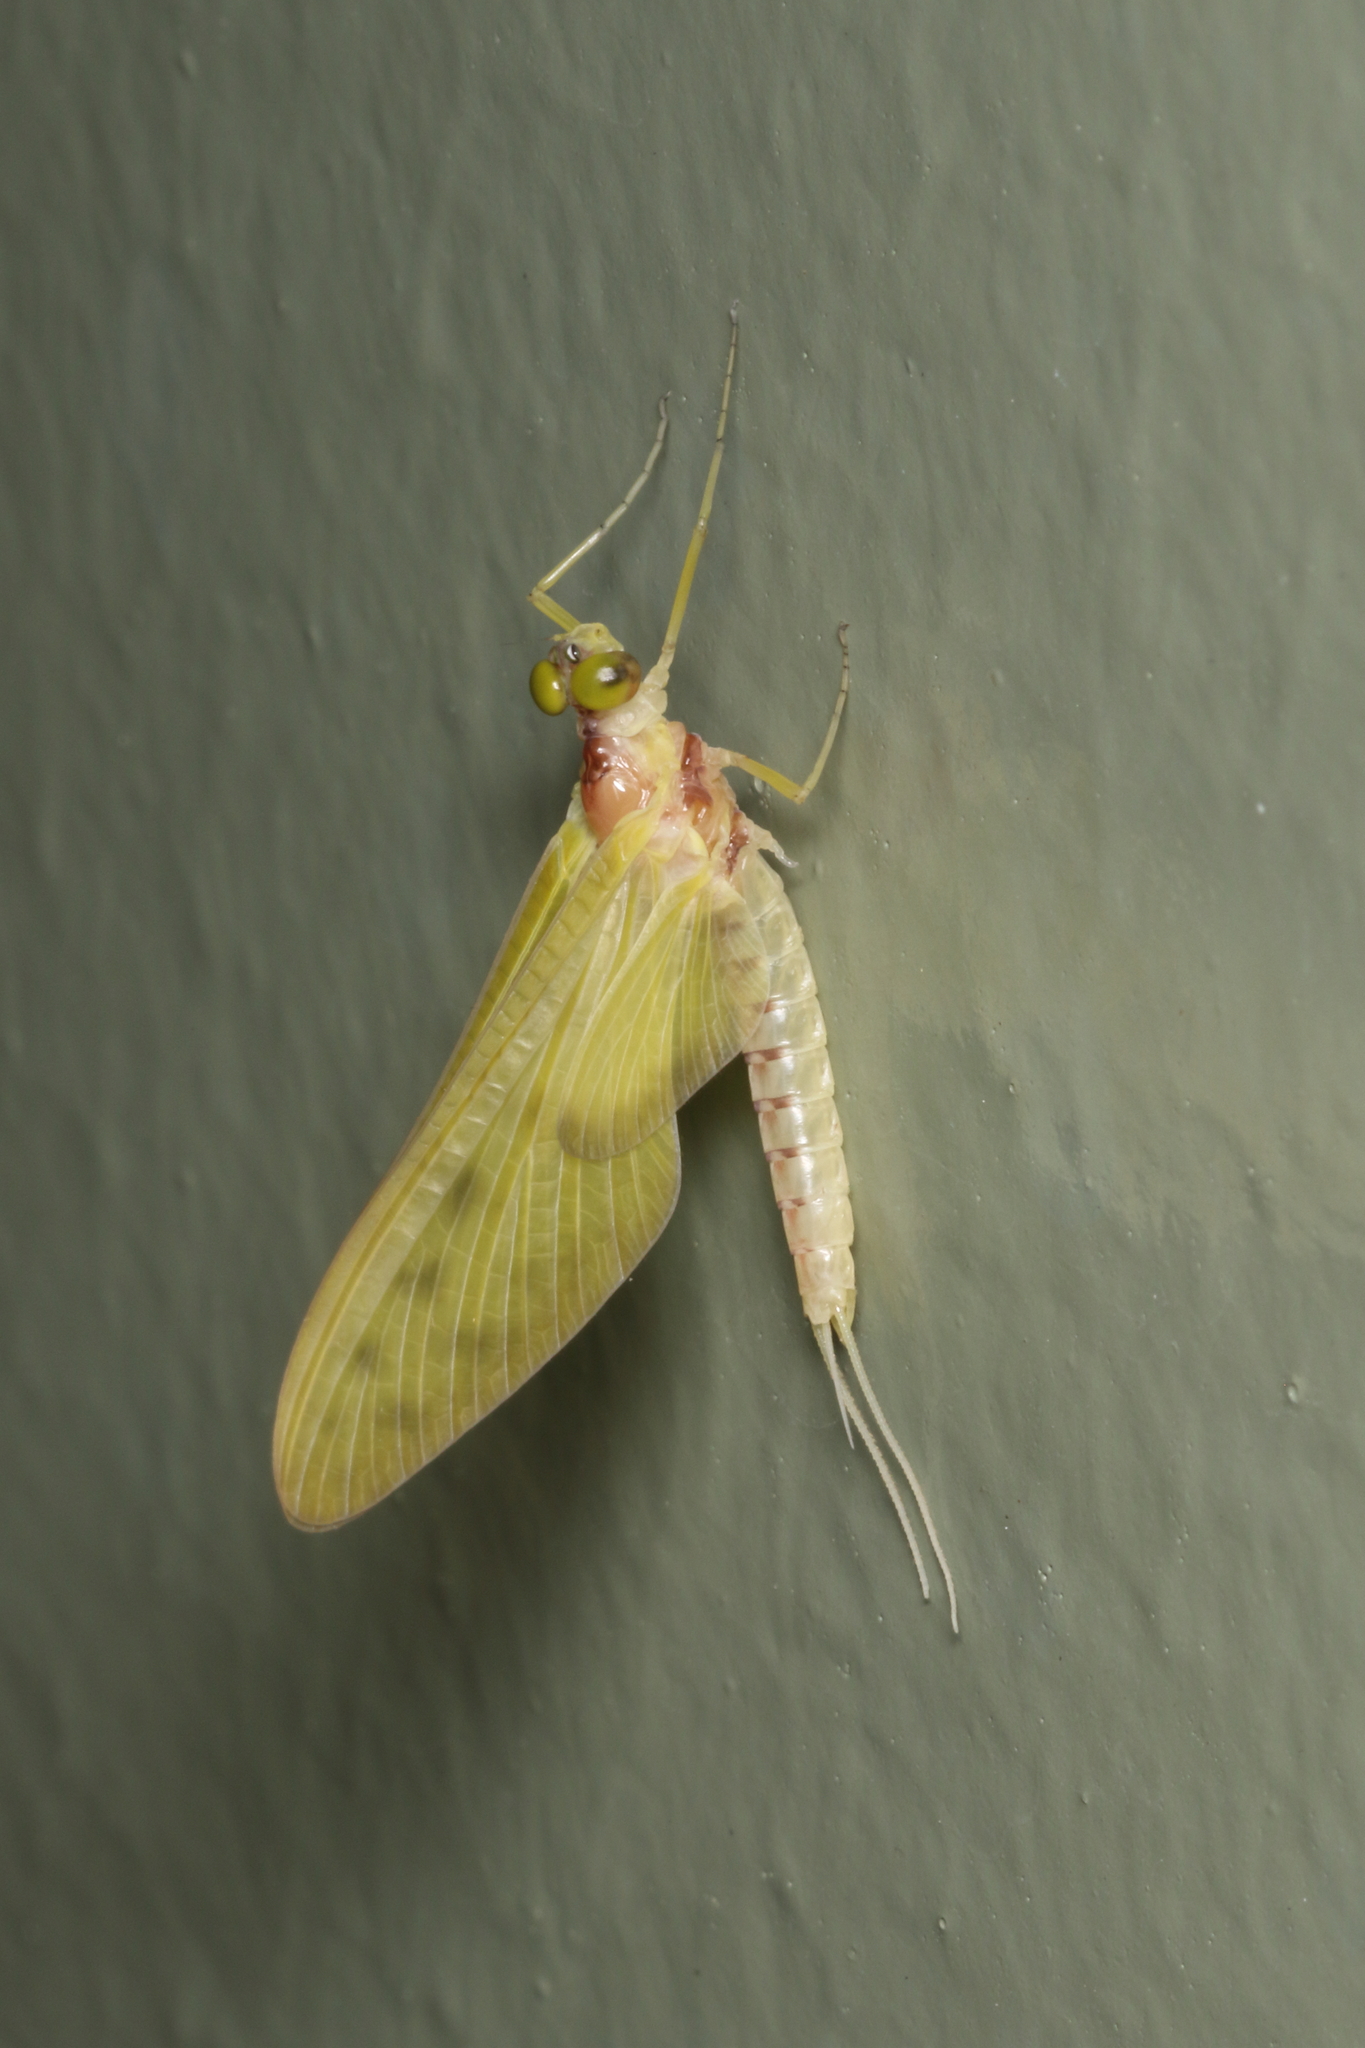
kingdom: Animalia
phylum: Arthropoda
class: Insecta
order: Ephemeroptera
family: Ameletopsidae
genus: Ameletopsis
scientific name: Ameletopsis perscitus
